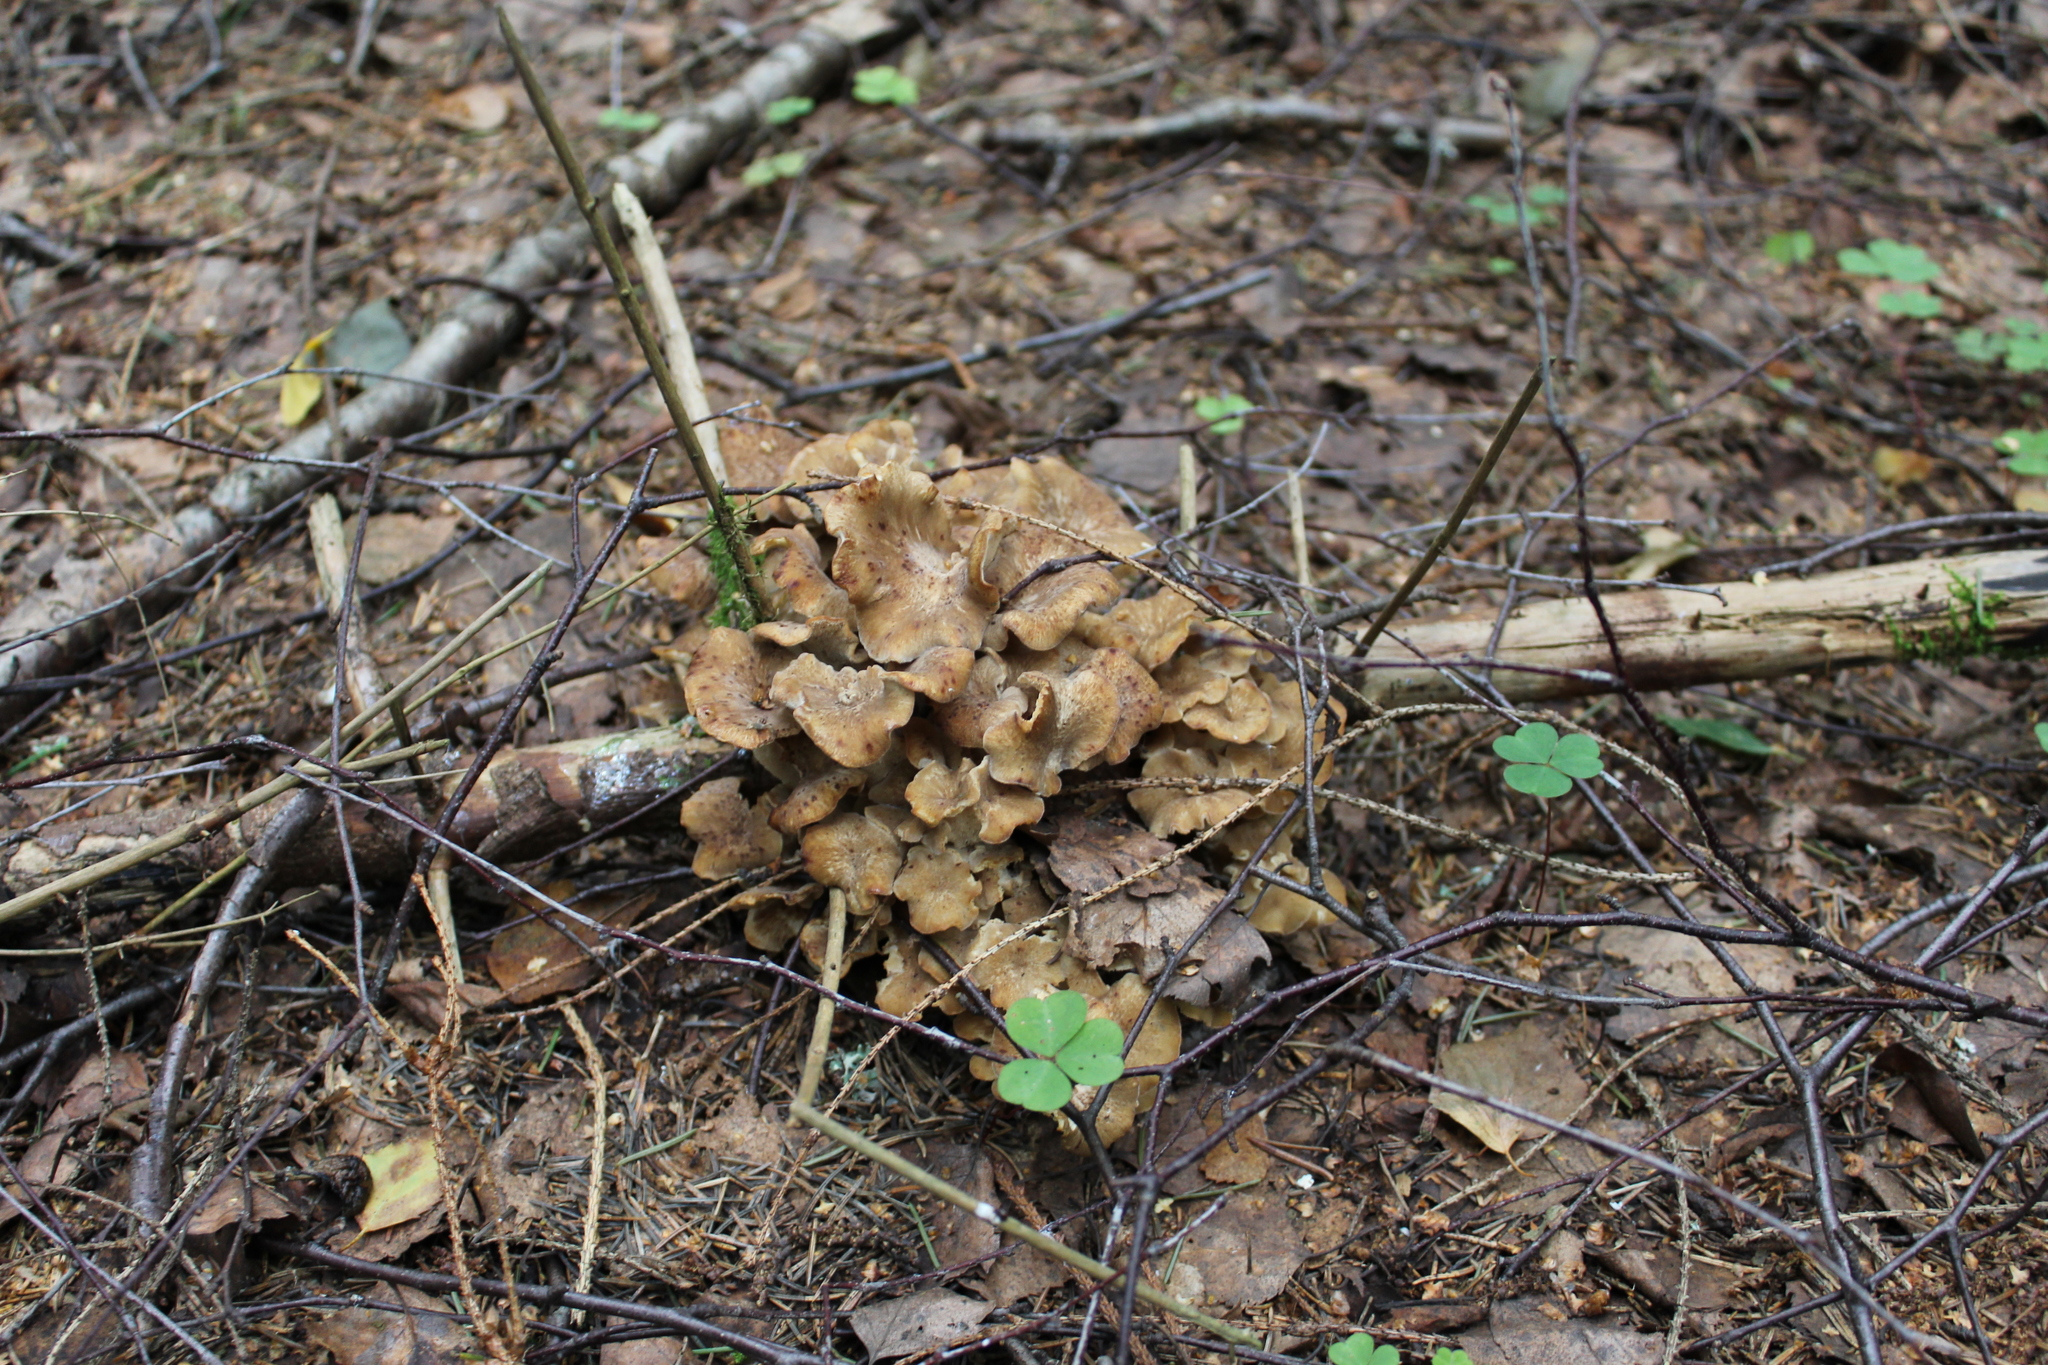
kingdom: Fungi
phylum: Basidiomycota
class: Agaricomycetes
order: Polyporales
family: Polyporaceae
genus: Polyporus
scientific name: Polyporus umbellatus
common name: Umbrella polypore
